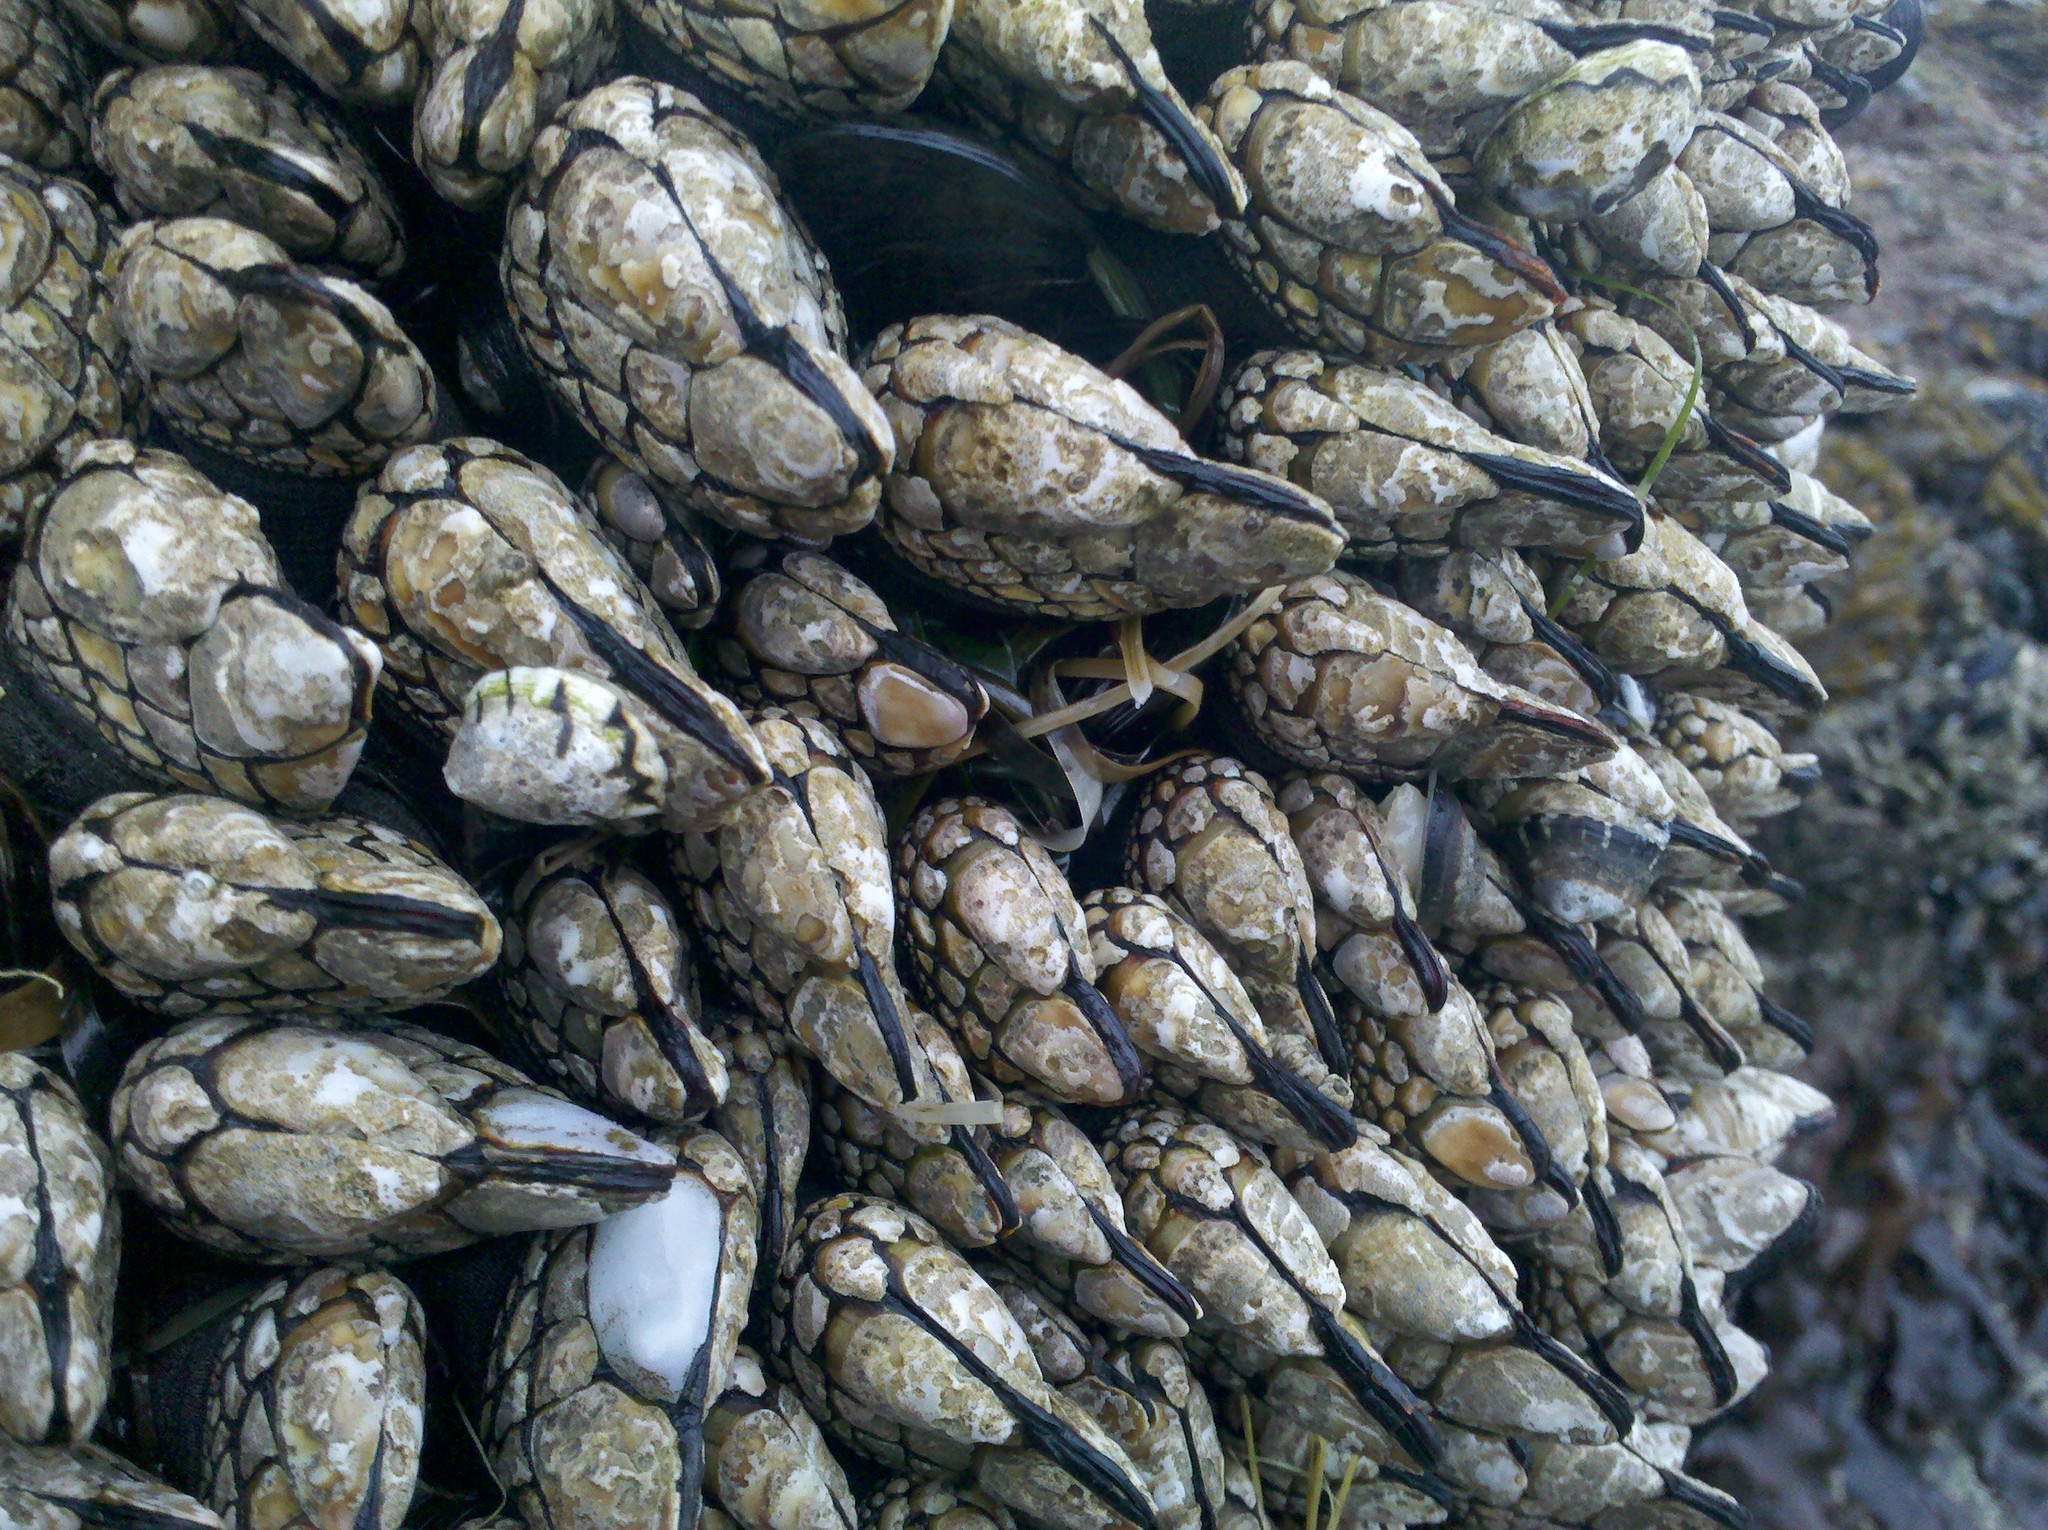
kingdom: Animalia
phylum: Arthropoda
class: Maxillopoda
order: Pedunculata
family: Pollicipedidae
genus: Pollicipes
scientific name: Pollicipes polymerus
